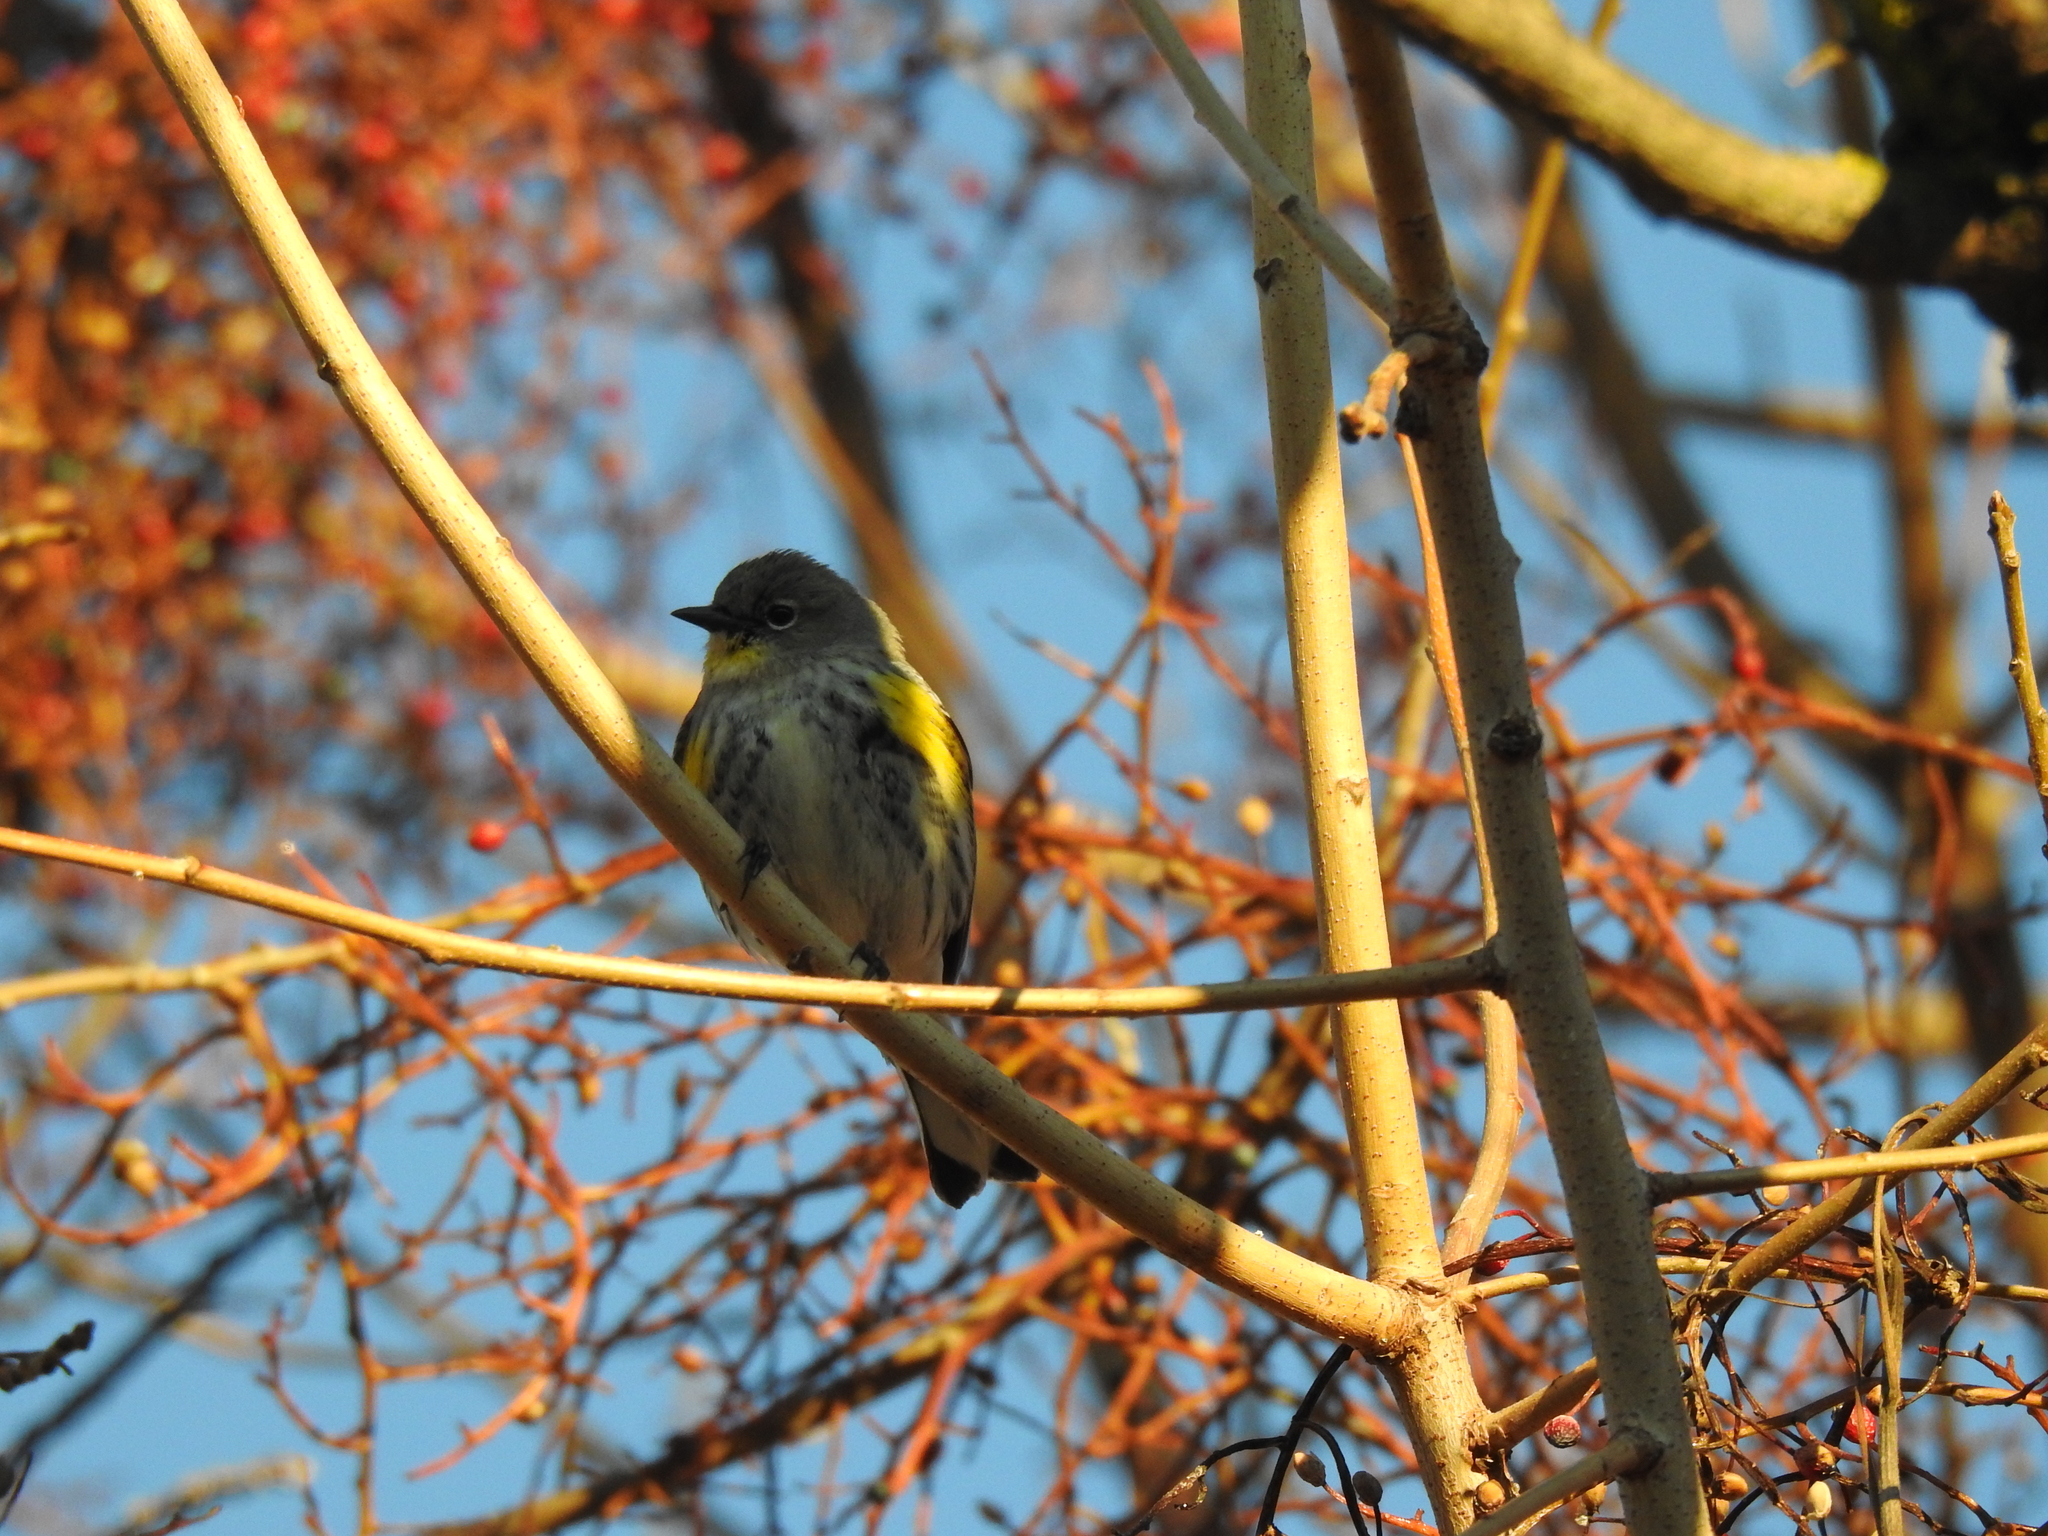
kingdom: Animalia
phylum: Chordata
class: Aves
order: Passeriformes
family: Parulidae
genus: Setophaga
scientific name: Setophaga coronata
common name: Myrtle warbler
